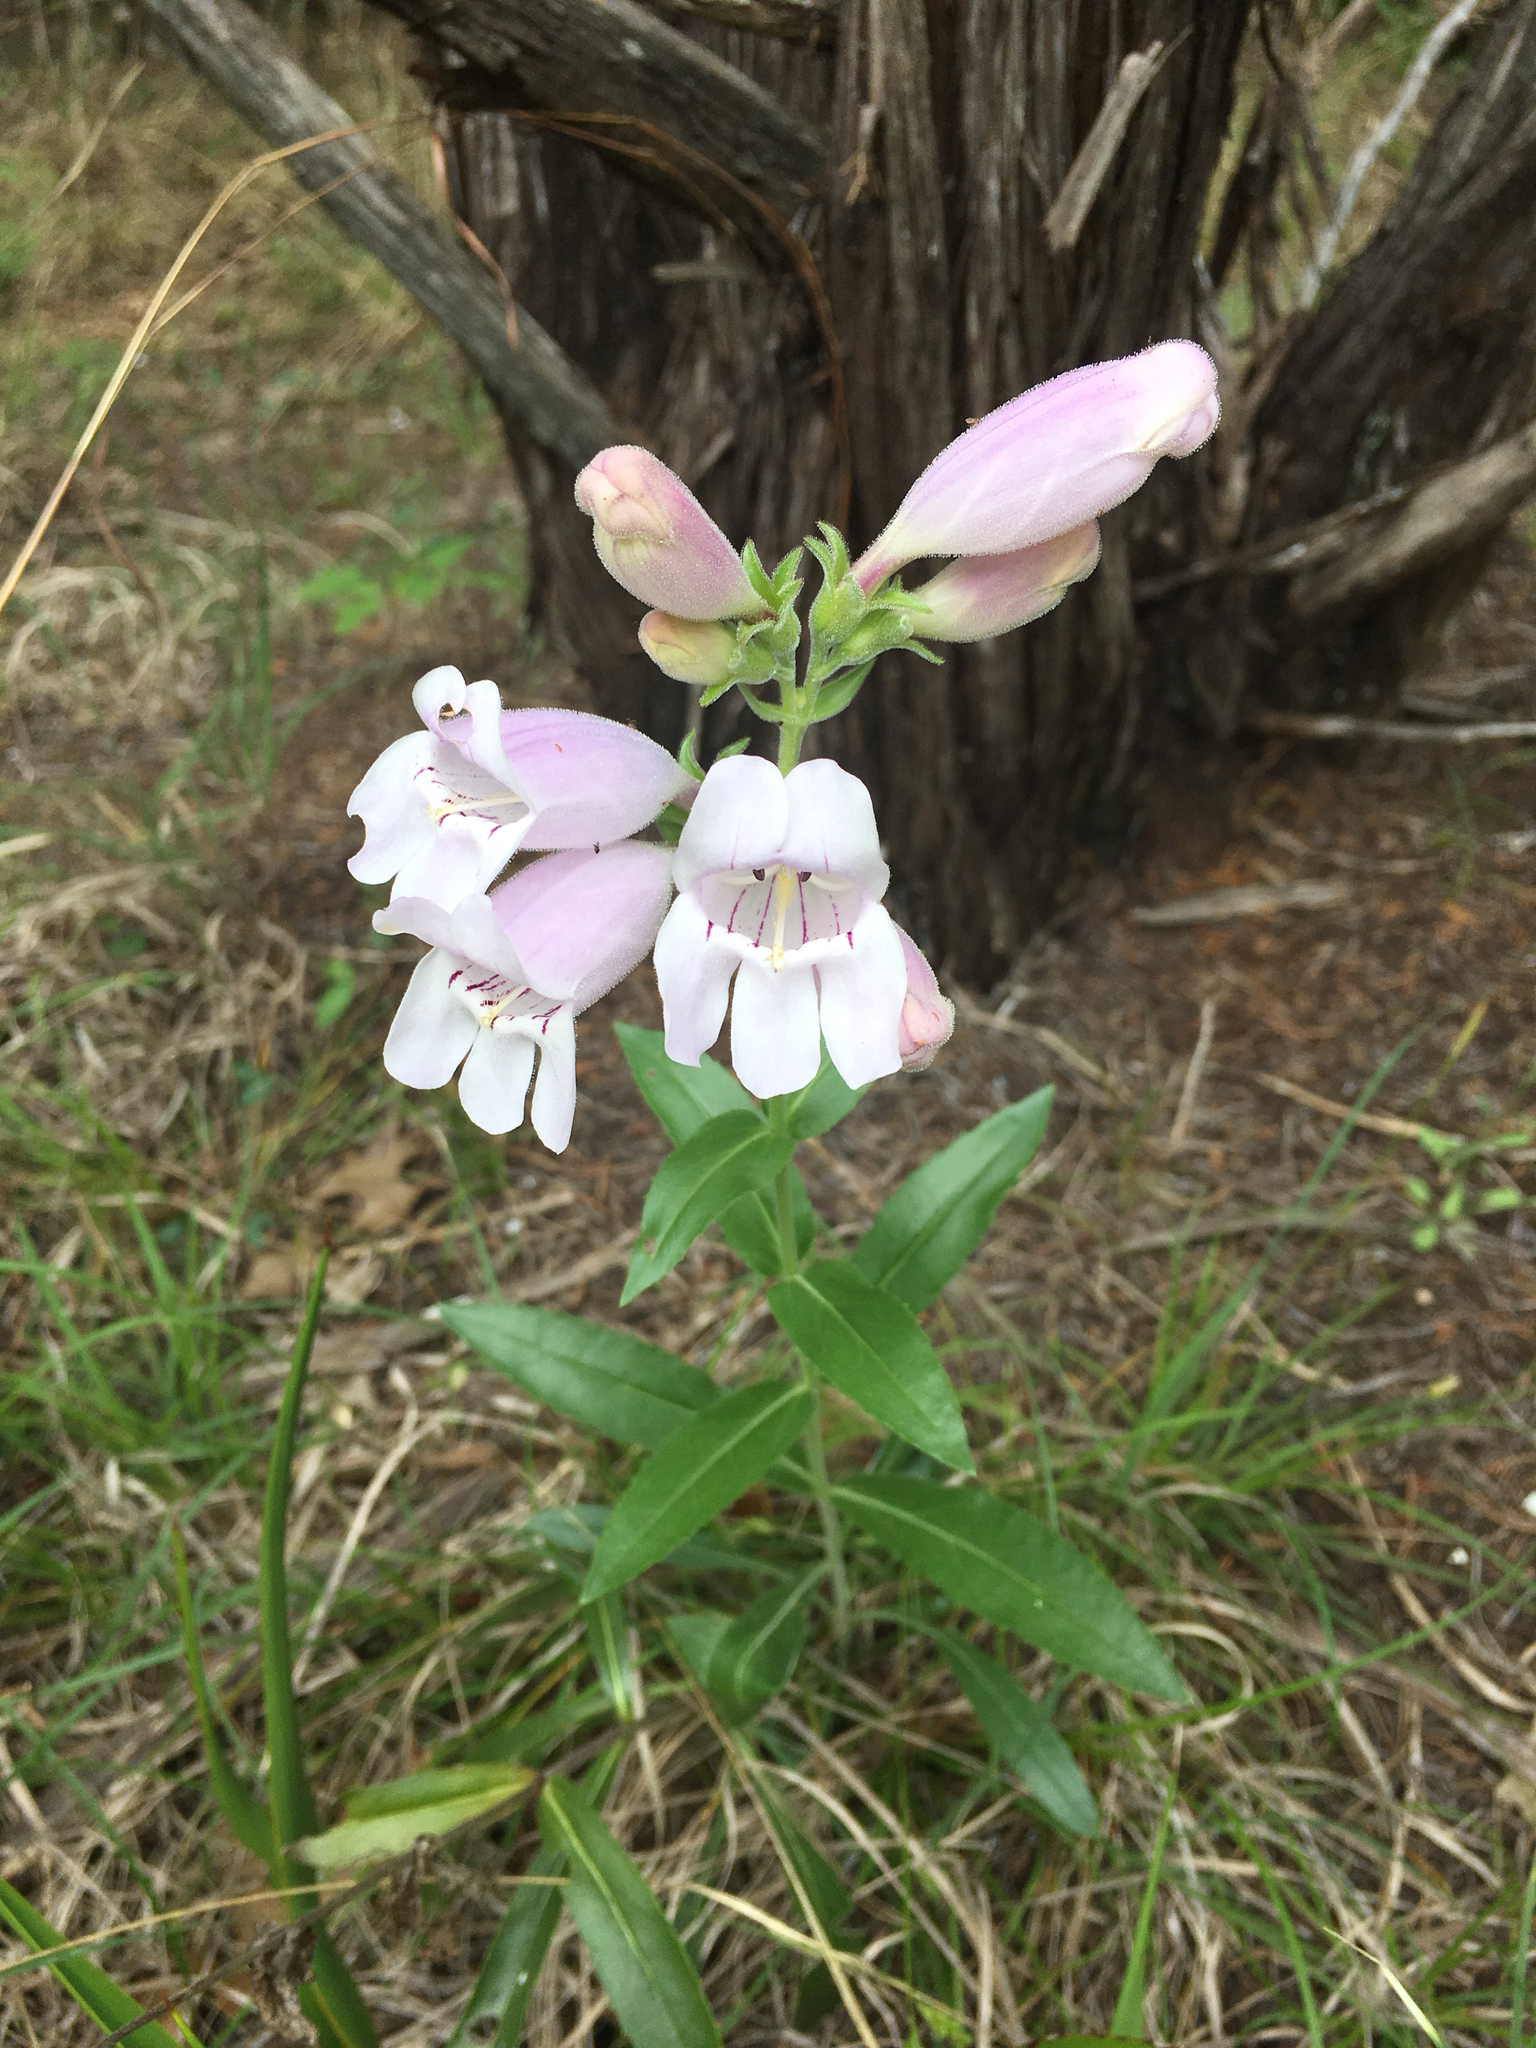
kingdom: Plantae
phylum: Tracheophyta
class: Magnoliopsida
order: Lamiales
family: Plantaginaceae
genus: Penstemon
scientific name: Penstemon cobaea
